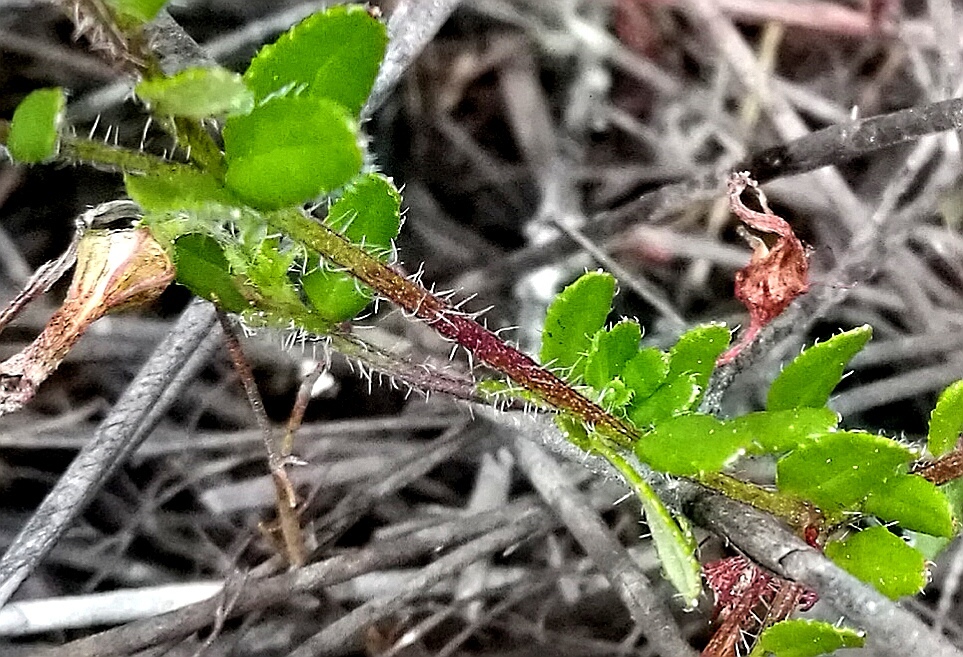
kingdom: Plantae
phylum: Tracheophyta
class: Magnoliopsida
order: Asterales
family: Campanulaceae
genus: Lobelia
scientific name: Lobelia neglecta
